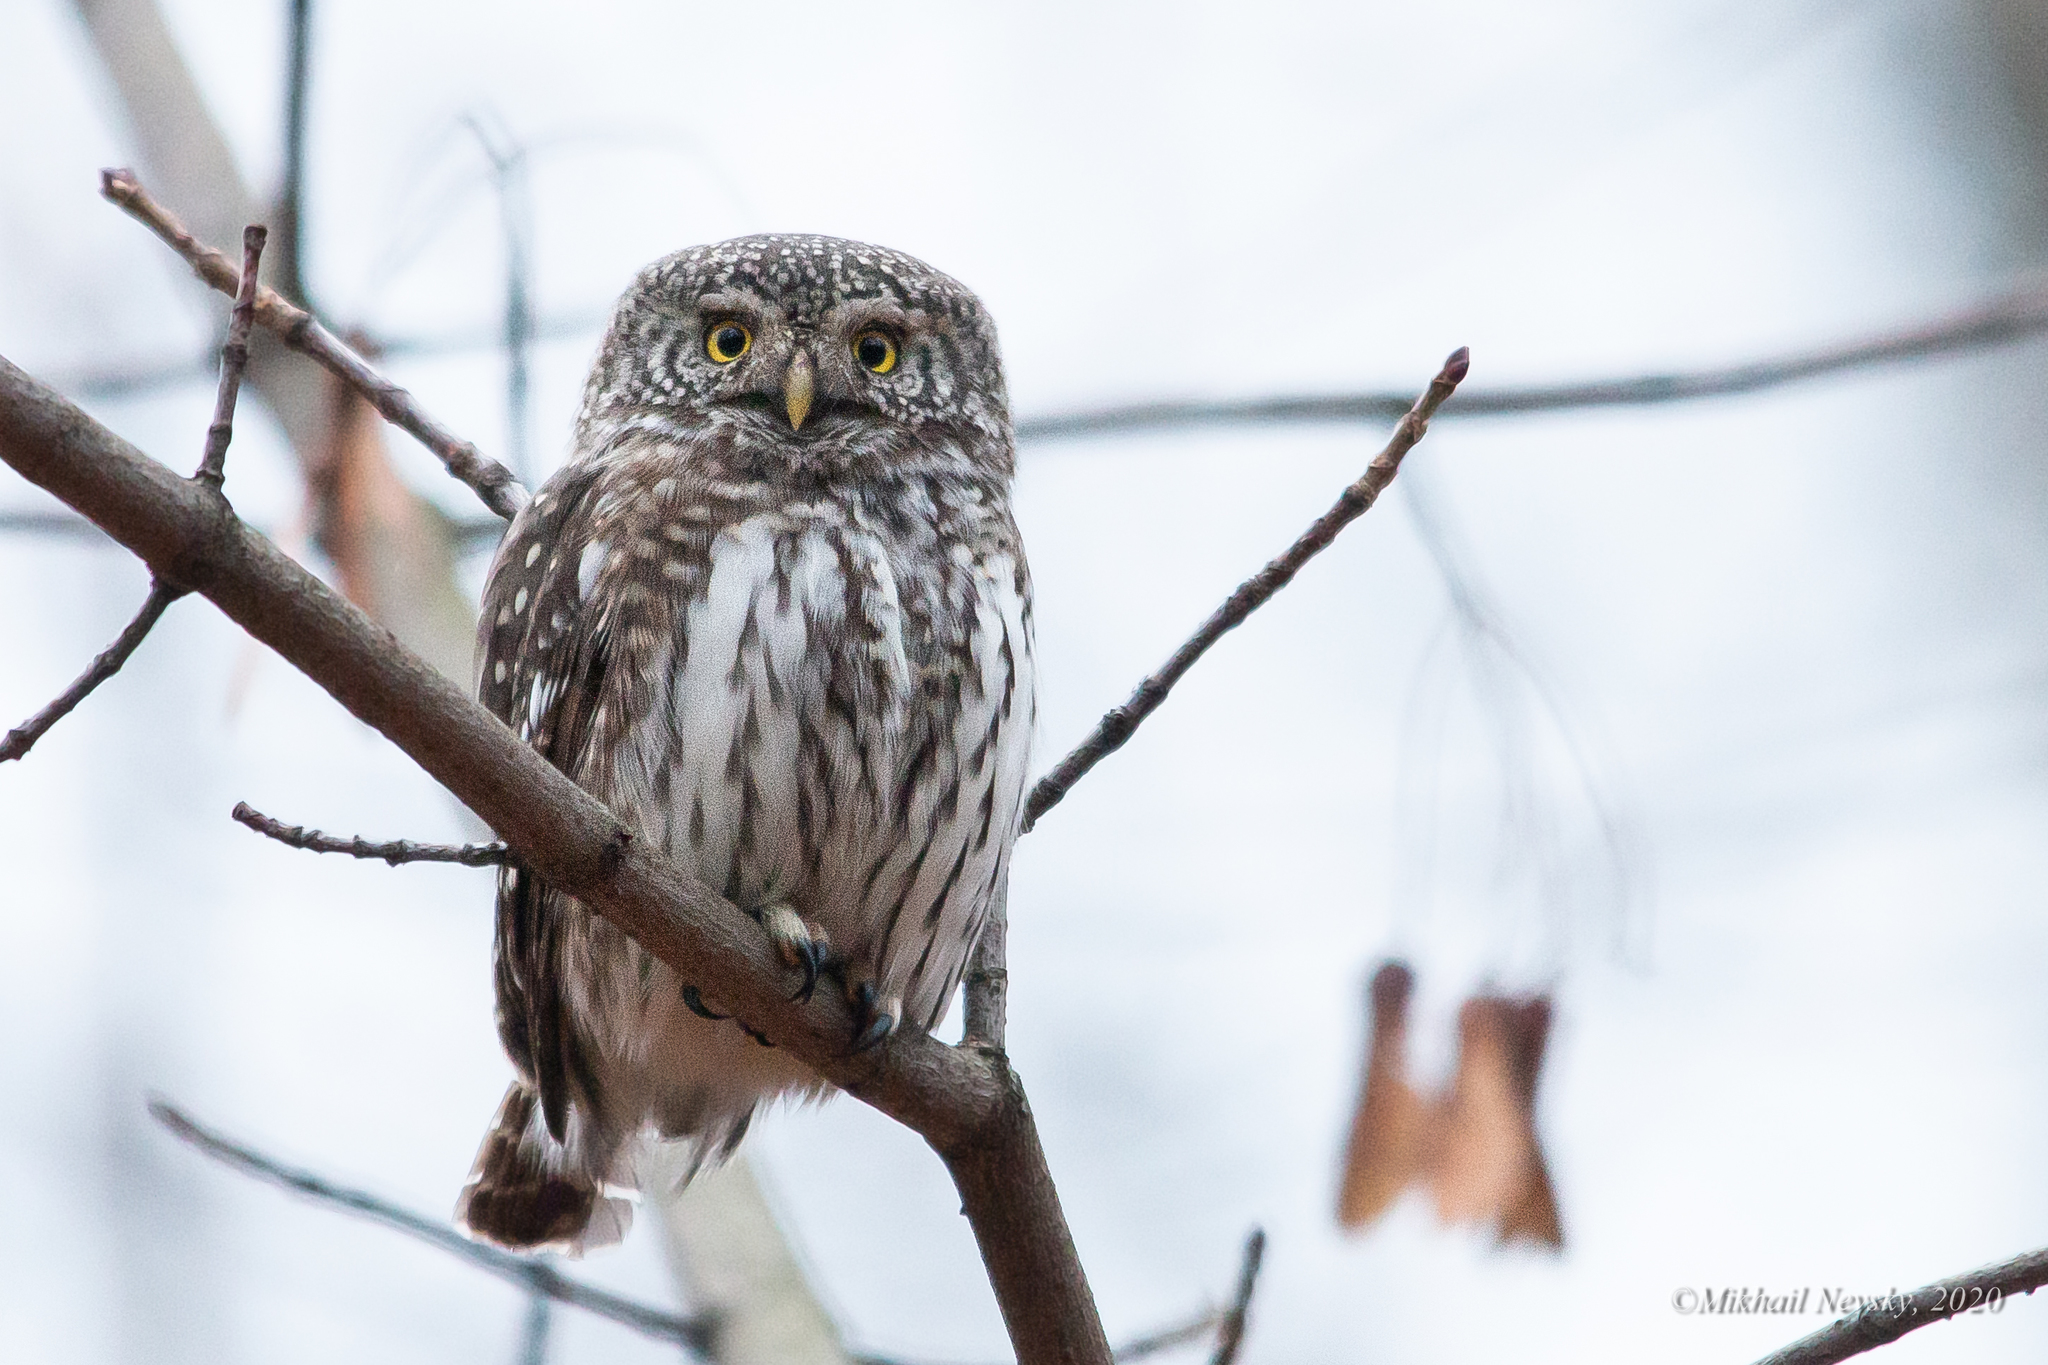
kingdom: Animalia
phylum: Chordata
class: Aves
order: Strigiformes
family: Strigidae
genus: Glaucidium
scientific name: Glaucidium passerinum
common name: Eurasian pygmy owl
